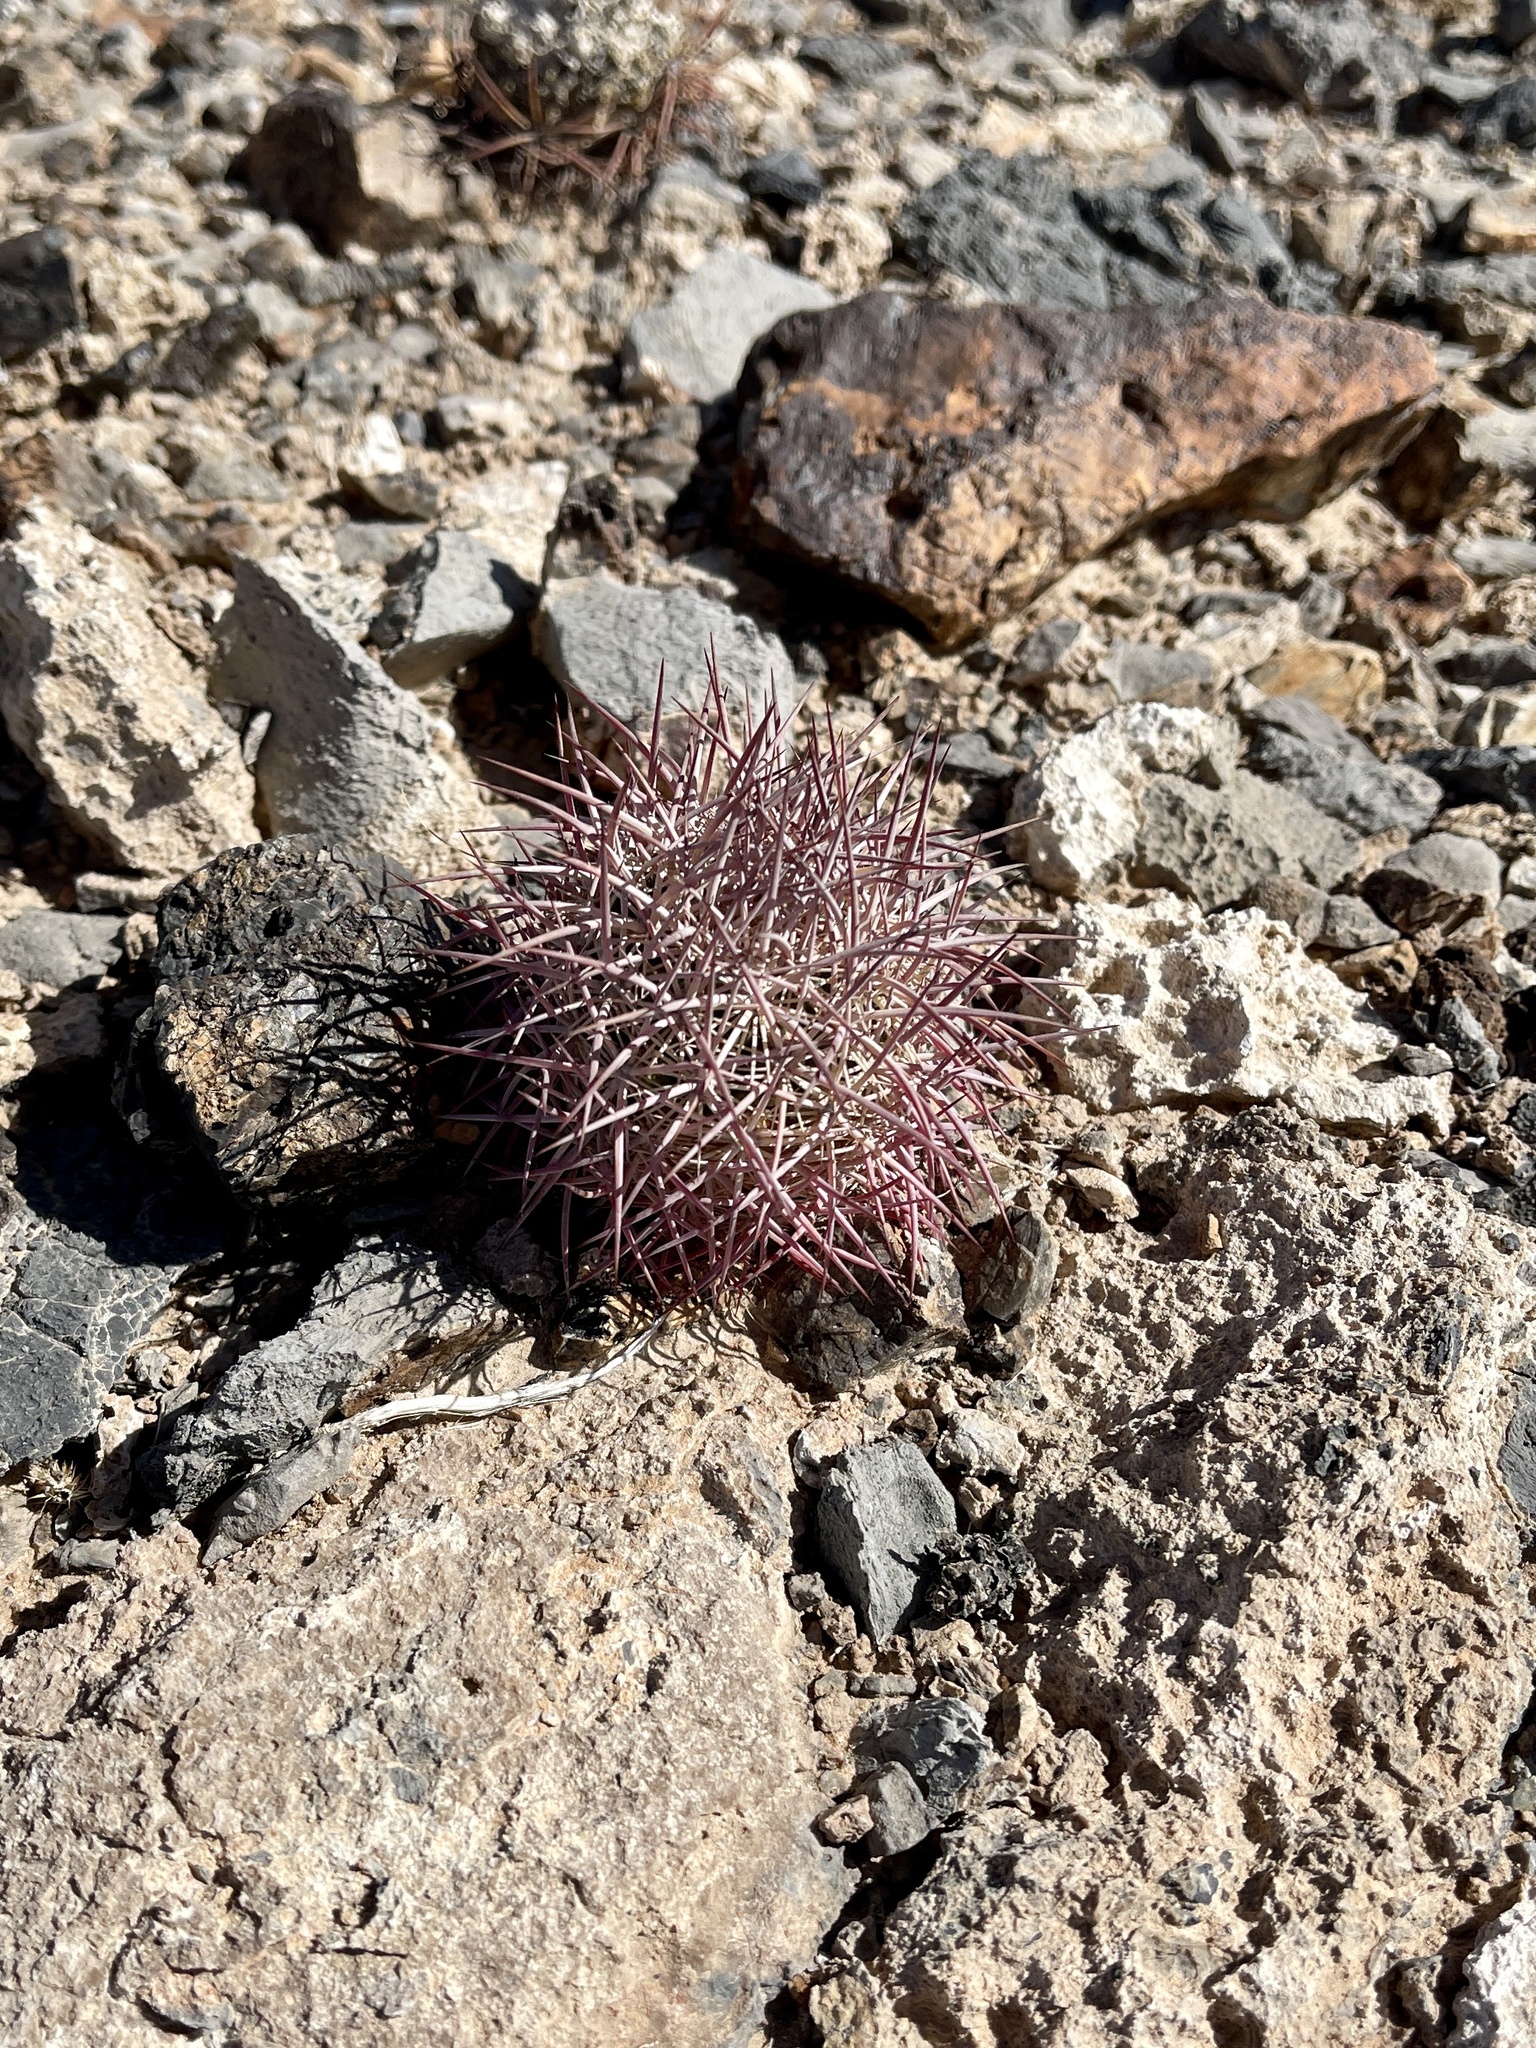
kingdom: Plantae
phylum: Tracheophyta
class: Magnoliopsida
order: Caryophyllales
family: Cactaceae
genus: Sclerocactus
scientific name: Sclerocactus johnsonii
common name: Eight-spine fishhook cactus
